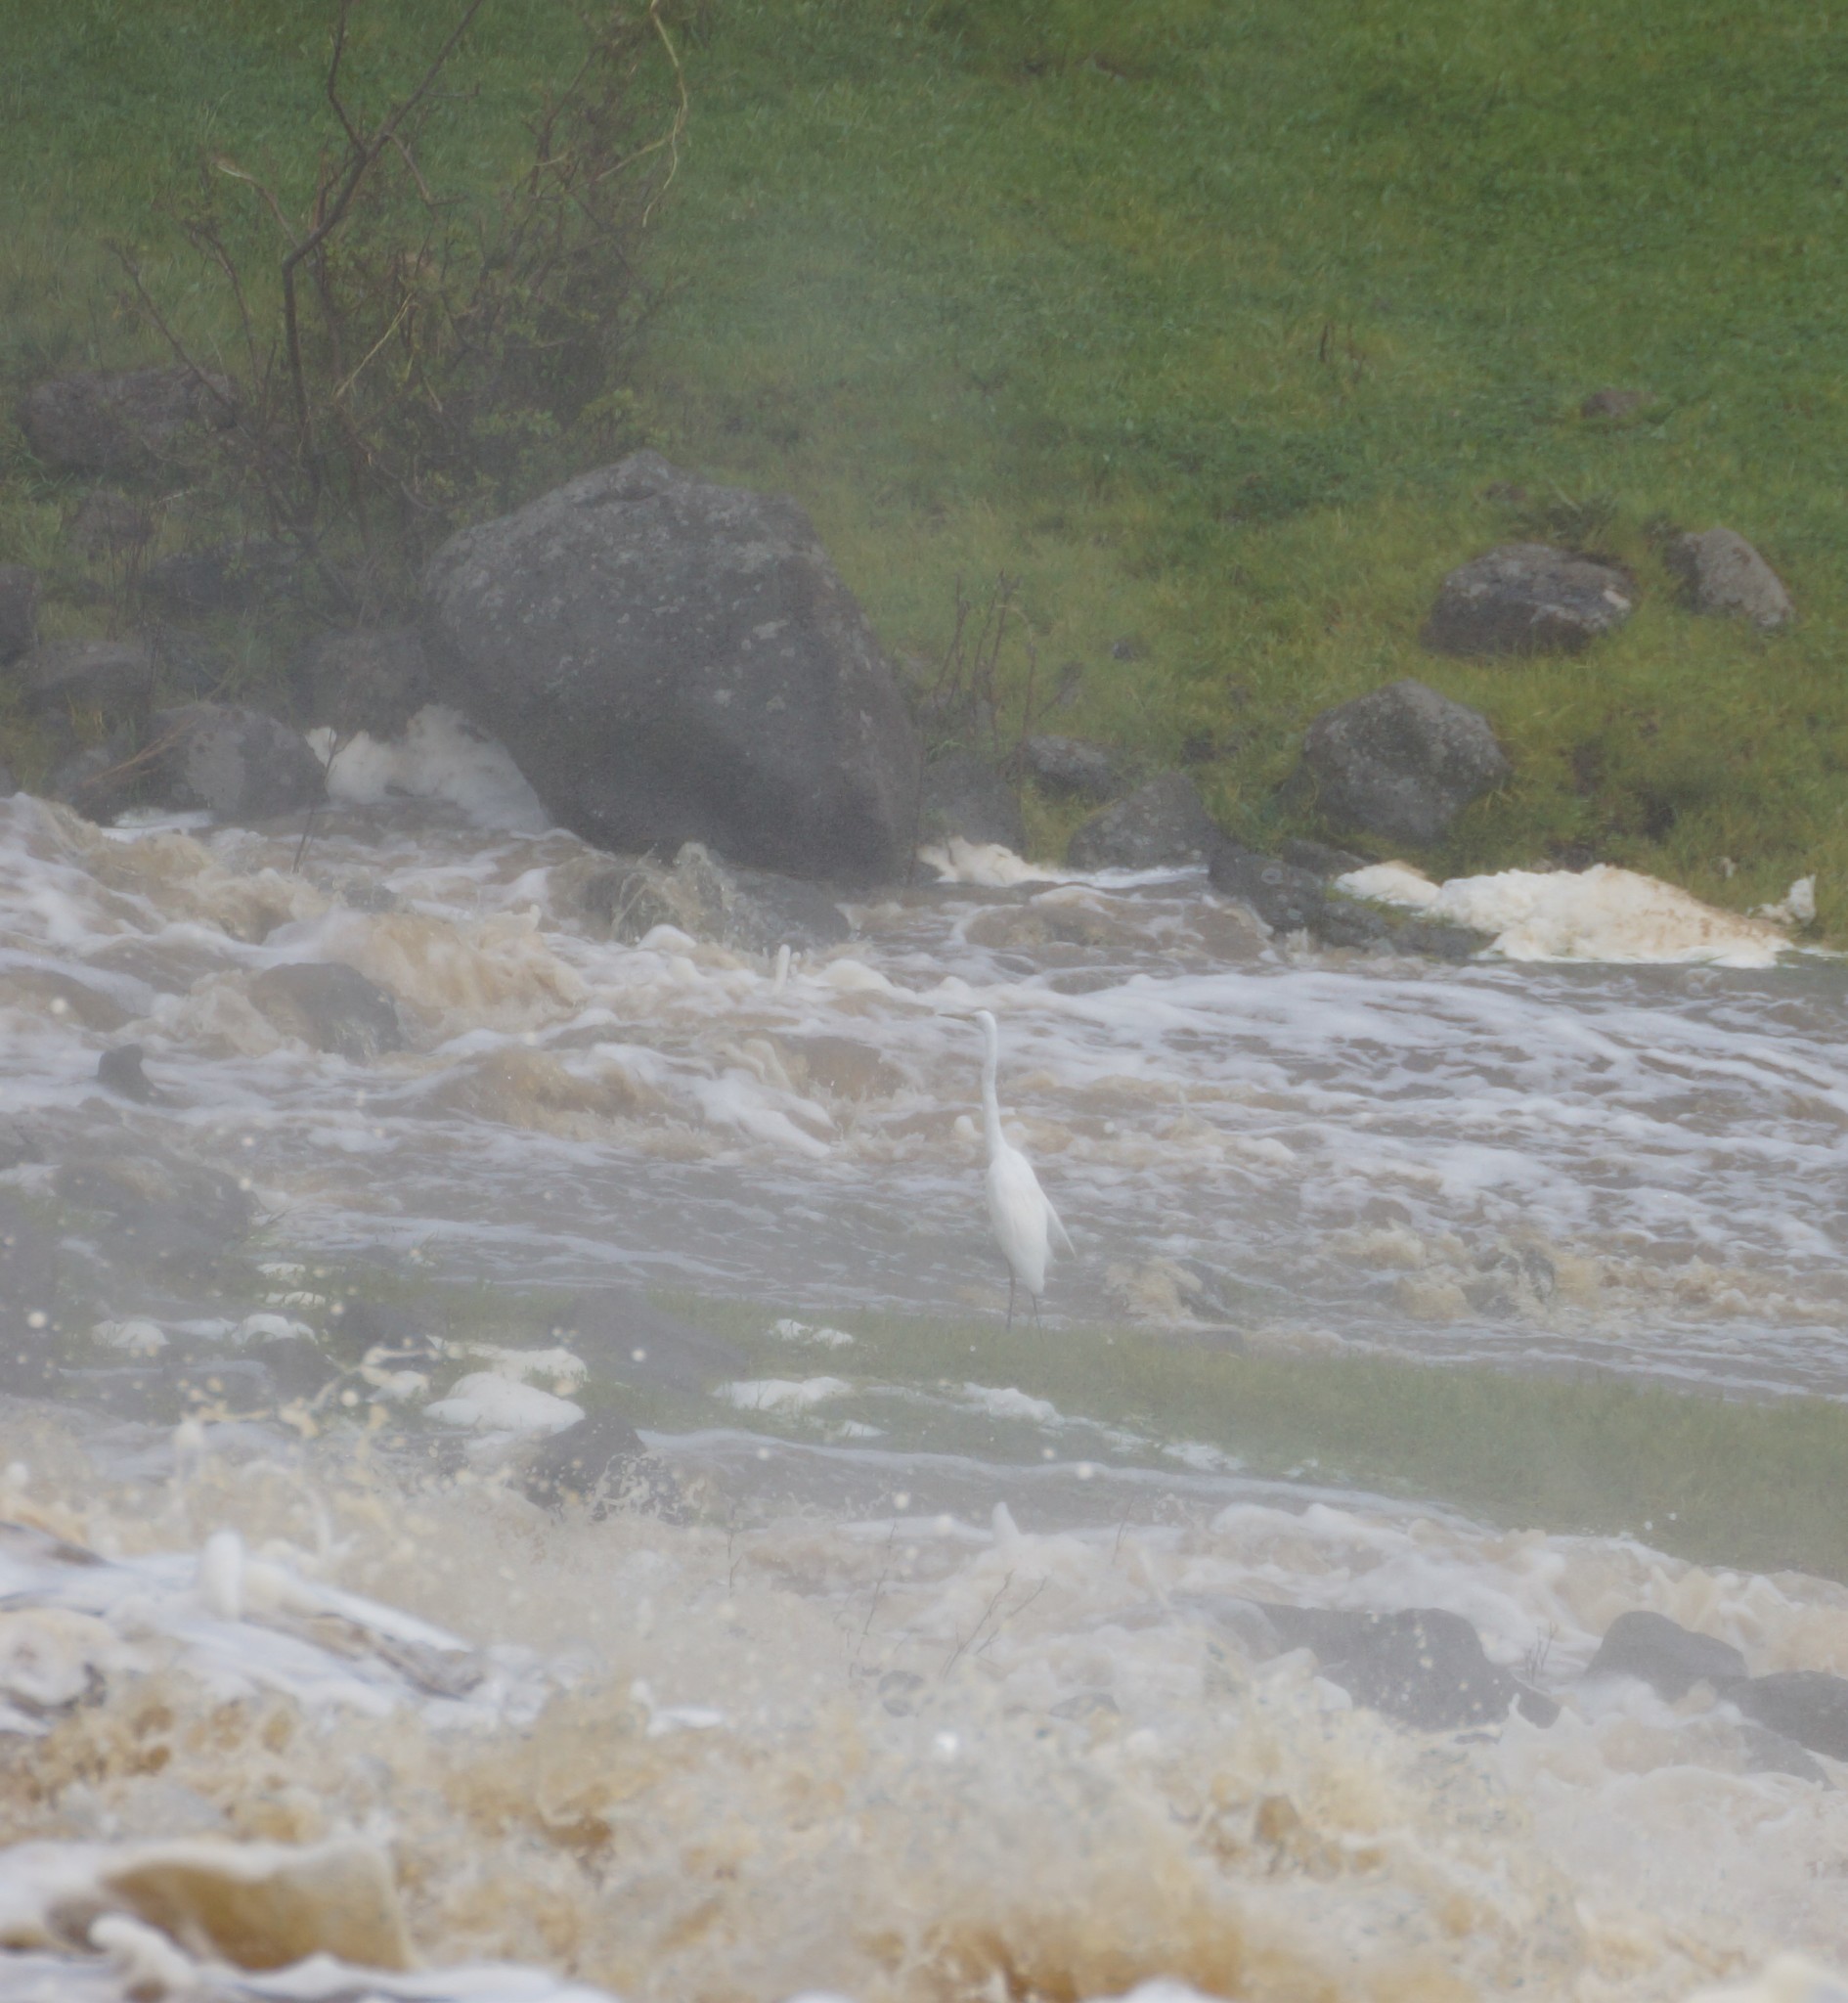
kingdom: Animalia
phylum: Chordata
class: Aves
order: Pelecaniformes
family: Ardeidae
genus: Ardea
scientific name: Ardea alba
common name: Great egret
